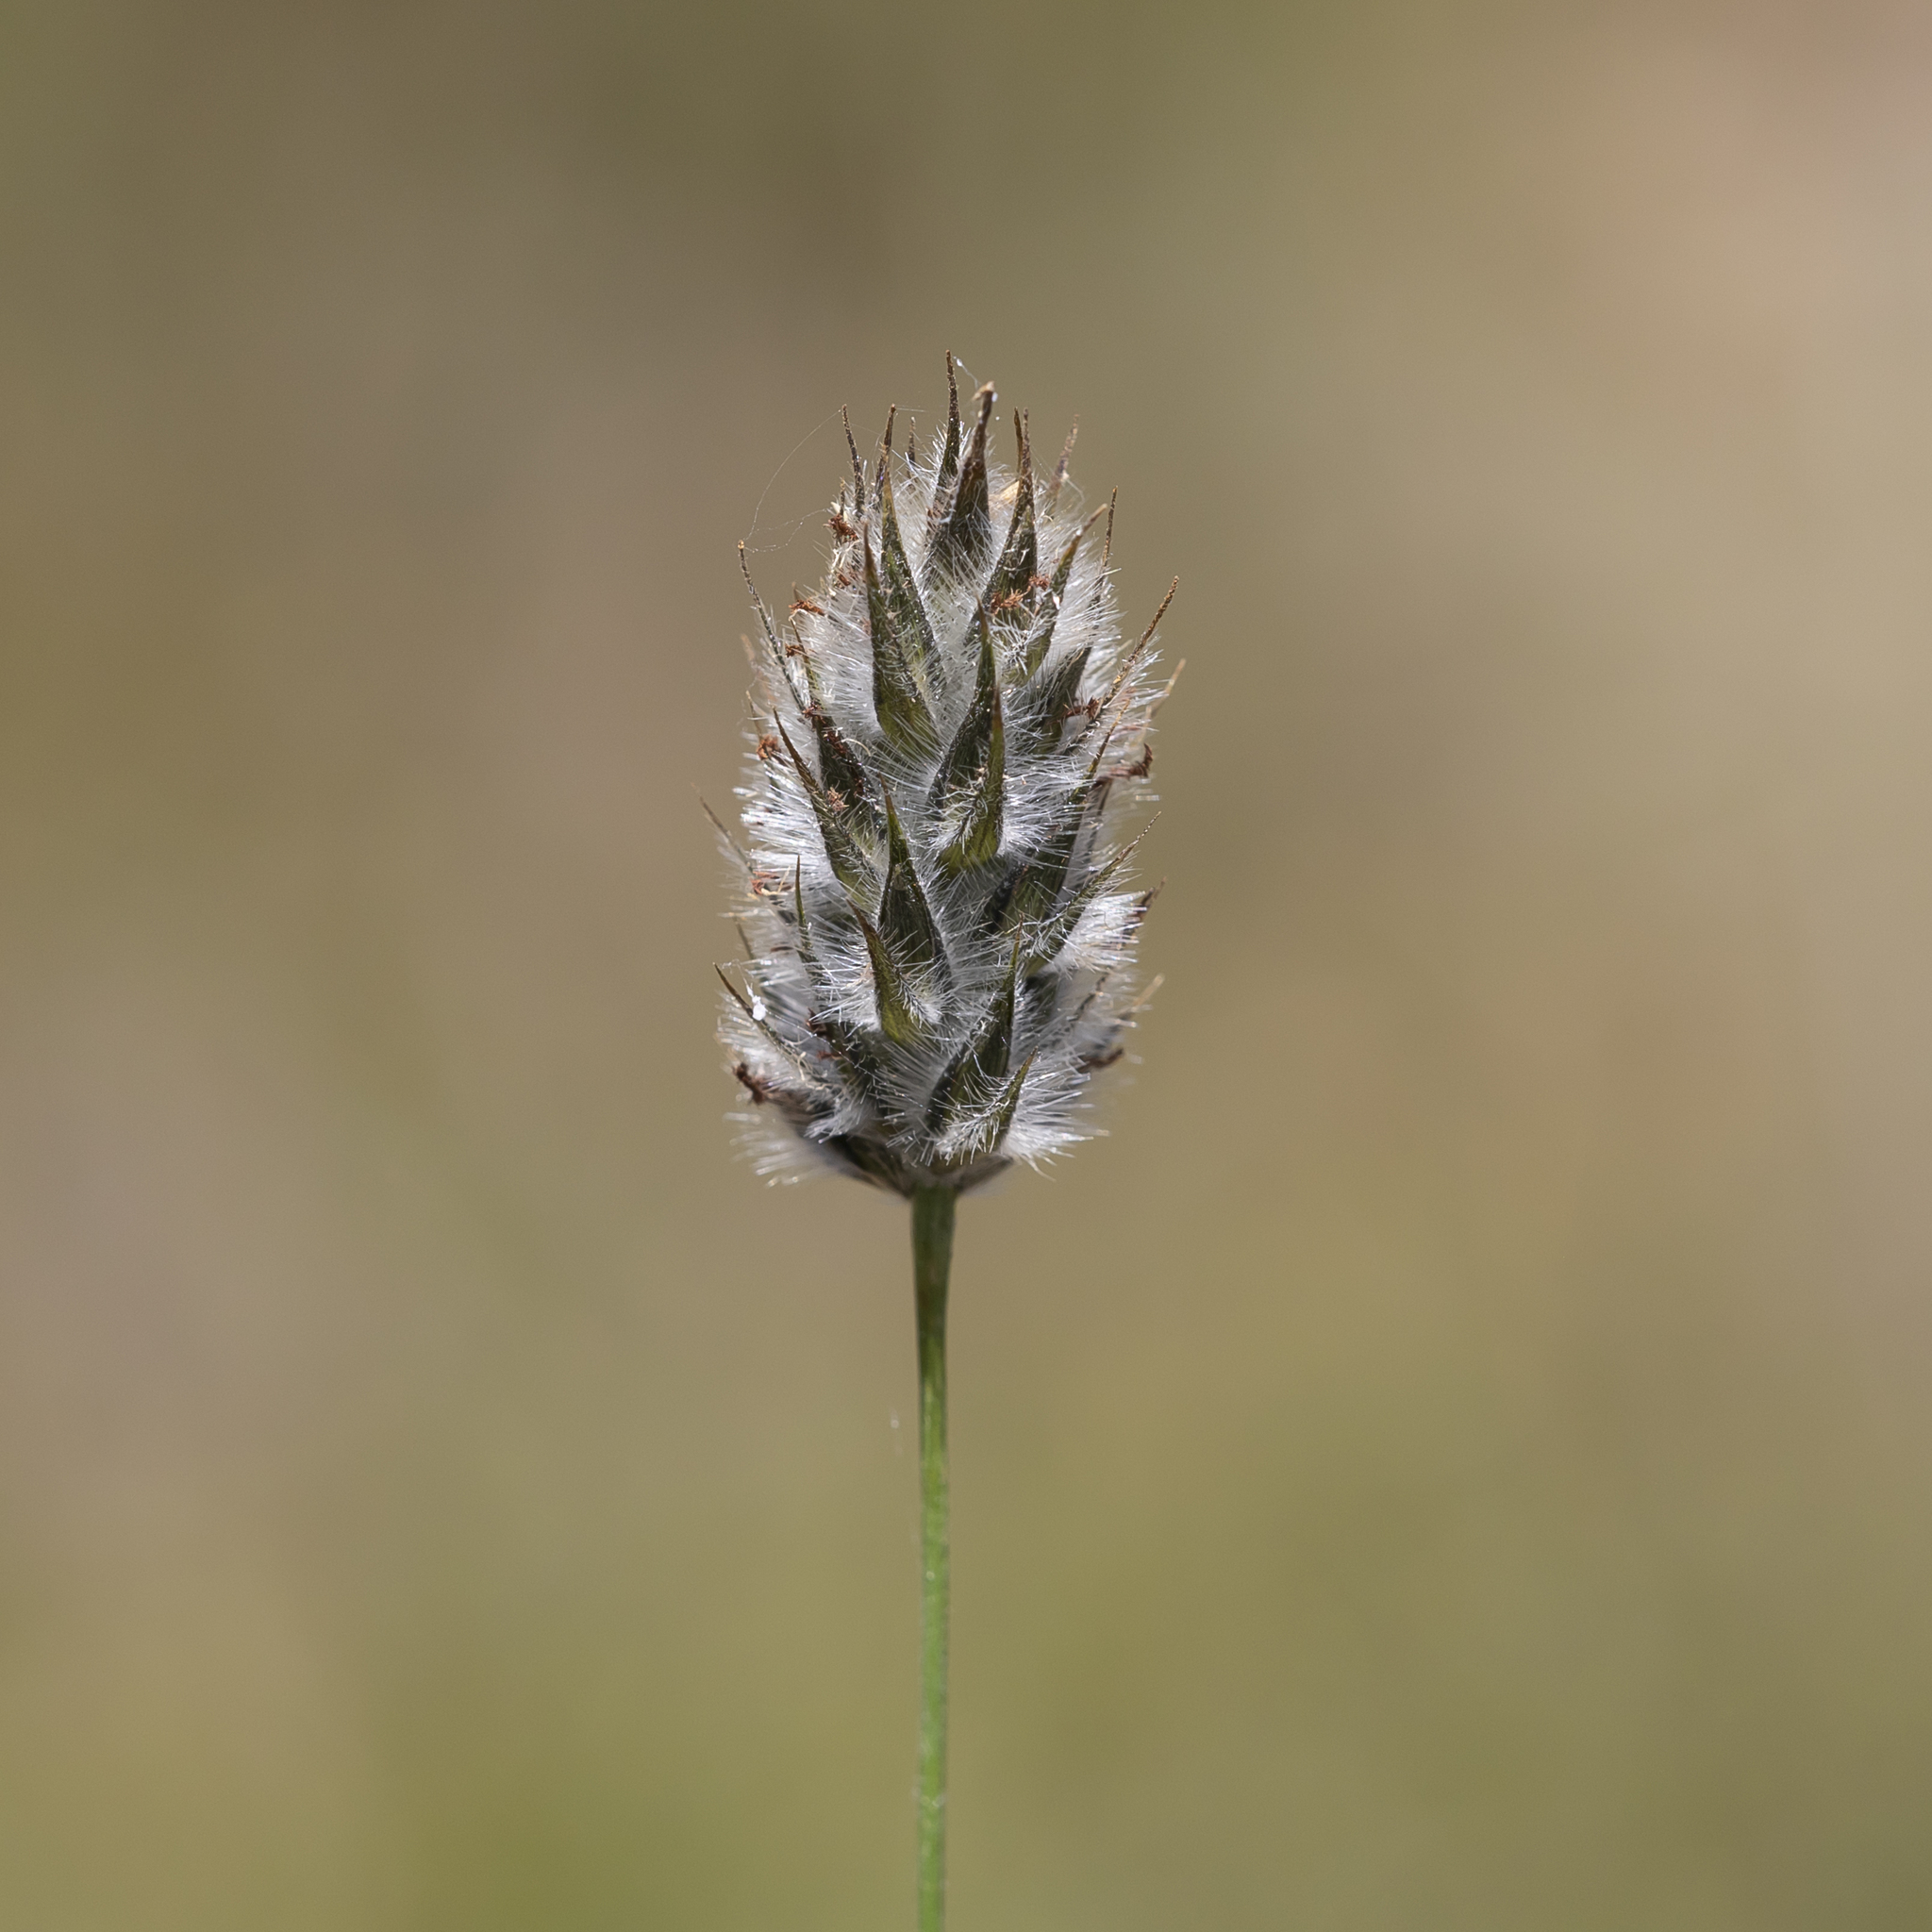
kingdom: Plantae
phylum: Tracheophyta
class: Liliopsida
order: Poales
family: Poaceae
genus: Neurachne
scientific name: Neurachne alopecuroidea
